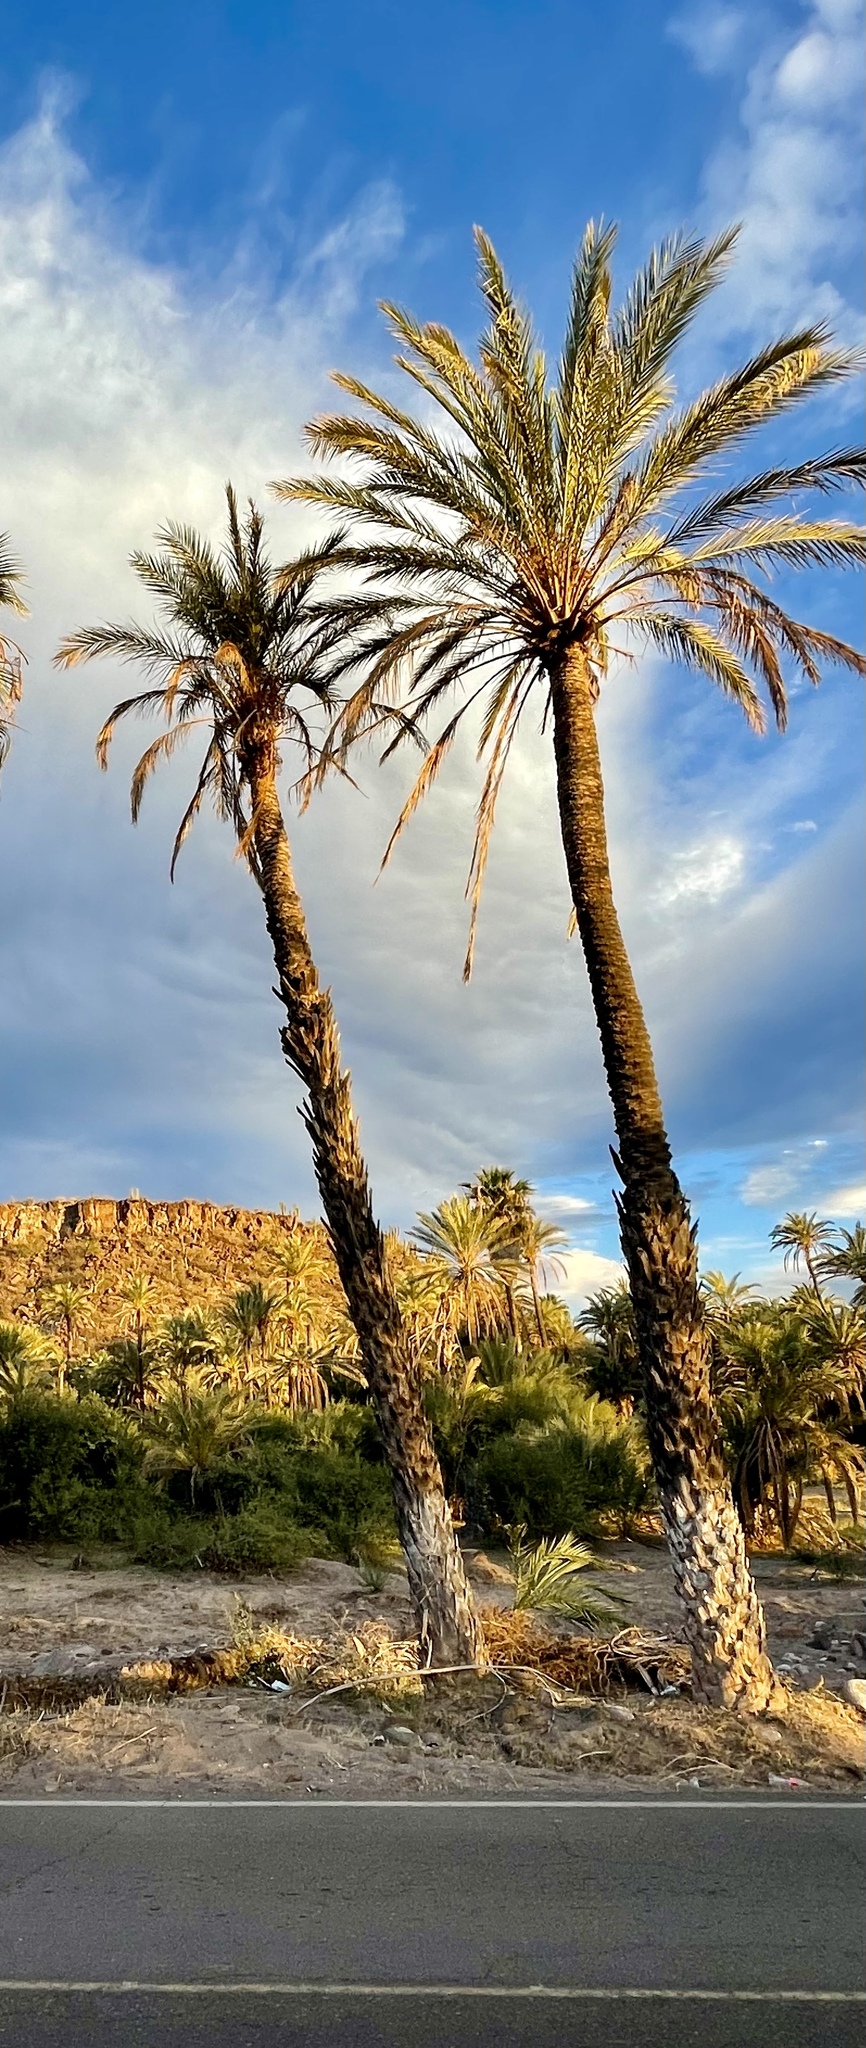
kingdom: Plantae
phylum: Tracheophyta
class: Liliopsida
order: Arecales
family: Arecaceae
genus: Phoenix
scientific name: Phoenix dactylifera
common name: Date palm
